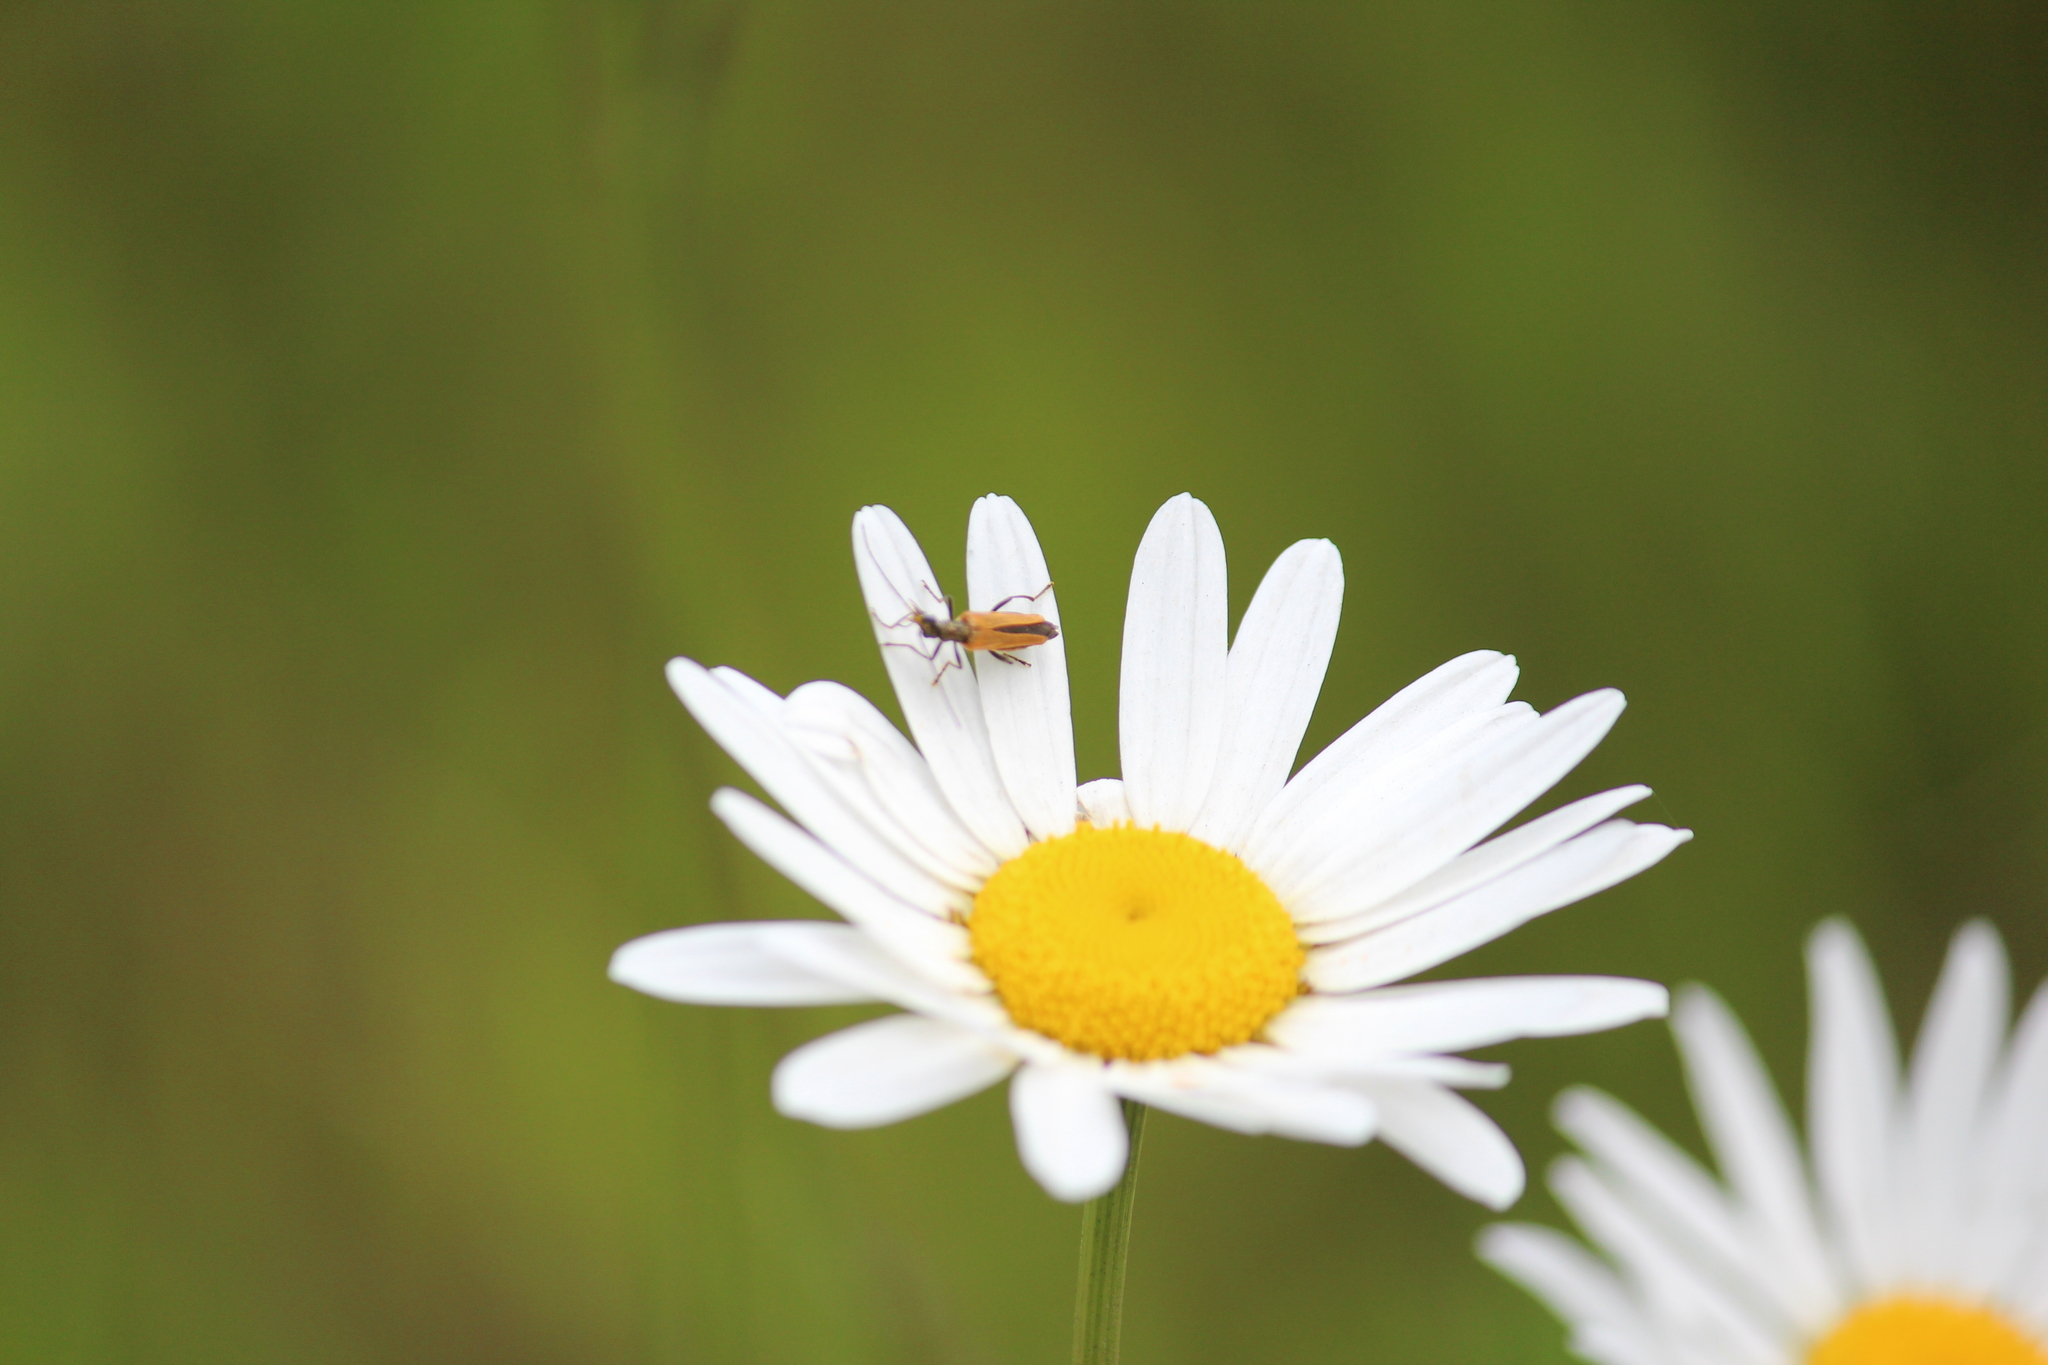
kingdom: Animalia
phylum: Arthropoda
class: Insecta
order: Coleoptera
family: Oedemeridae
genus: Oedemera
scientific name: Oedemera femorata
